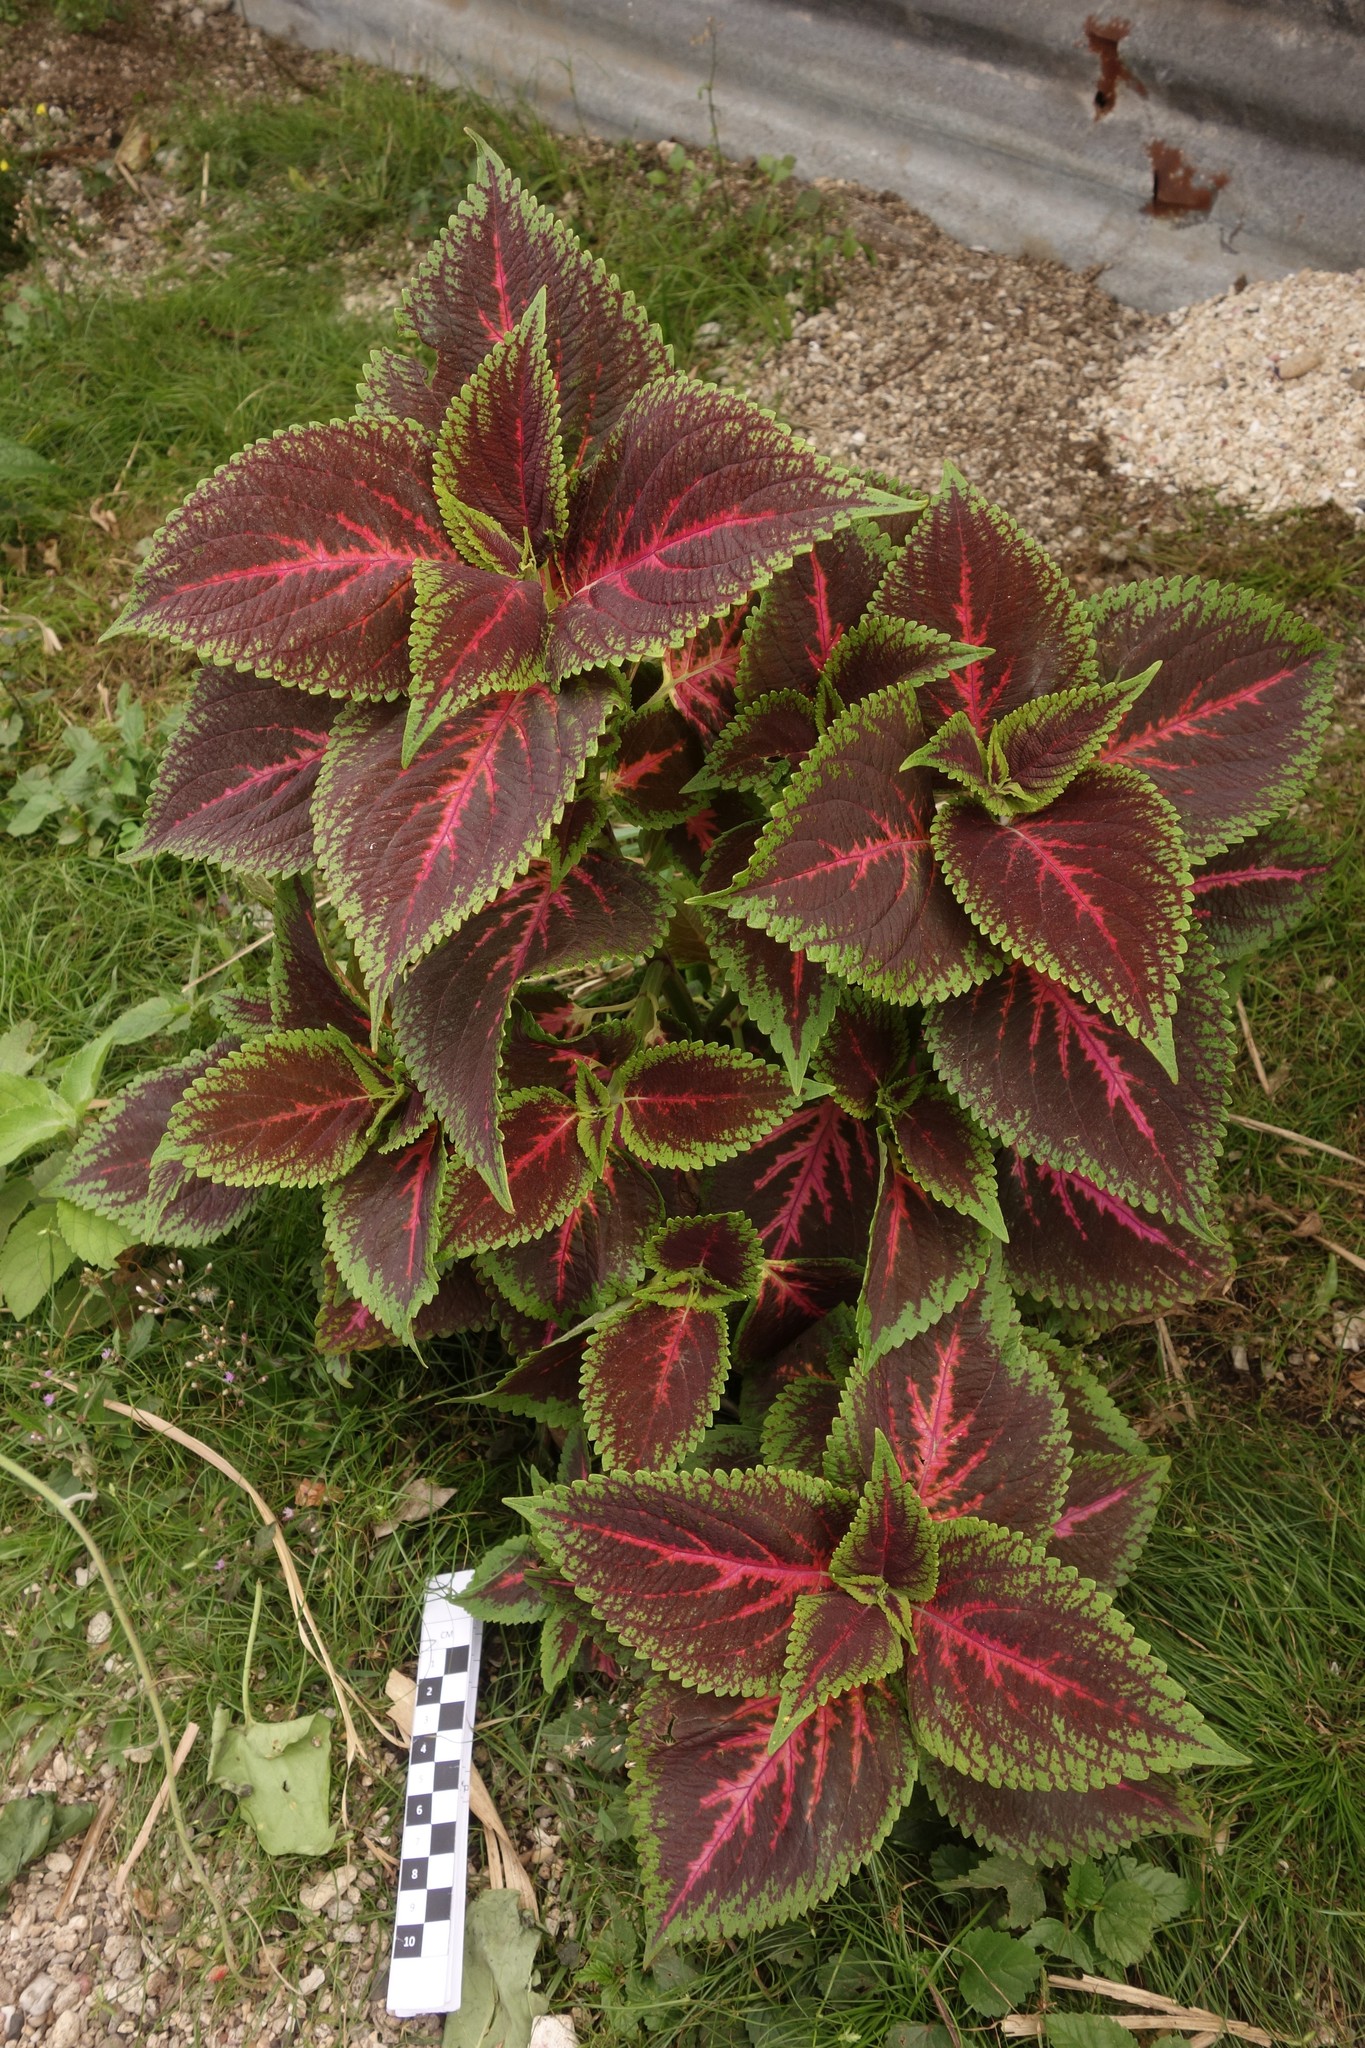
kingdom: Plantae
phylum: Tracheophyta
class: Magnoliopsida
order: Lamiales
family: Lamiaceae
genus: Coleus
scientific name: Coleus scutellarioides
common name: Coleus
